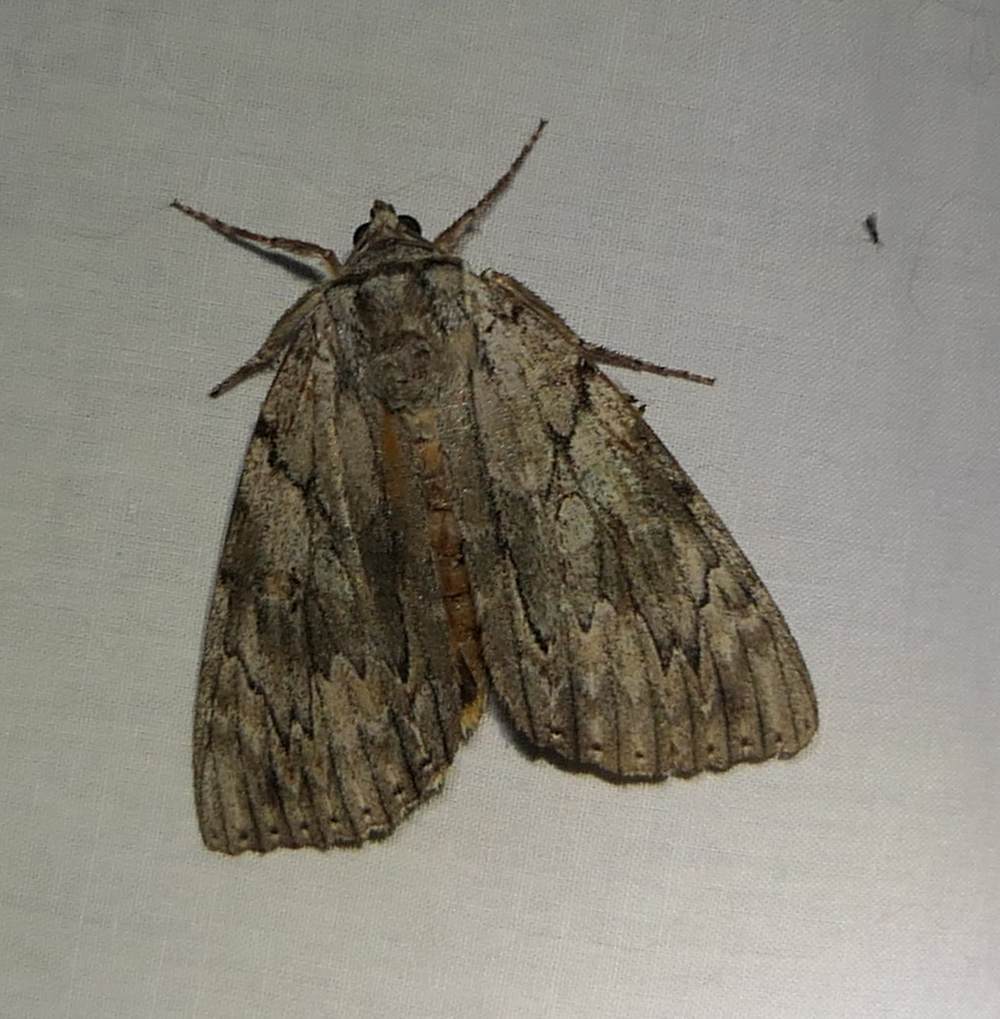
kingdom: Animalia
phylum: Arthropoda
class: Insecta
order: Lepidoptera
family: Erebidae
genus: Catocala
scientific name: Catocala subnata
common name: Youthful underwing
